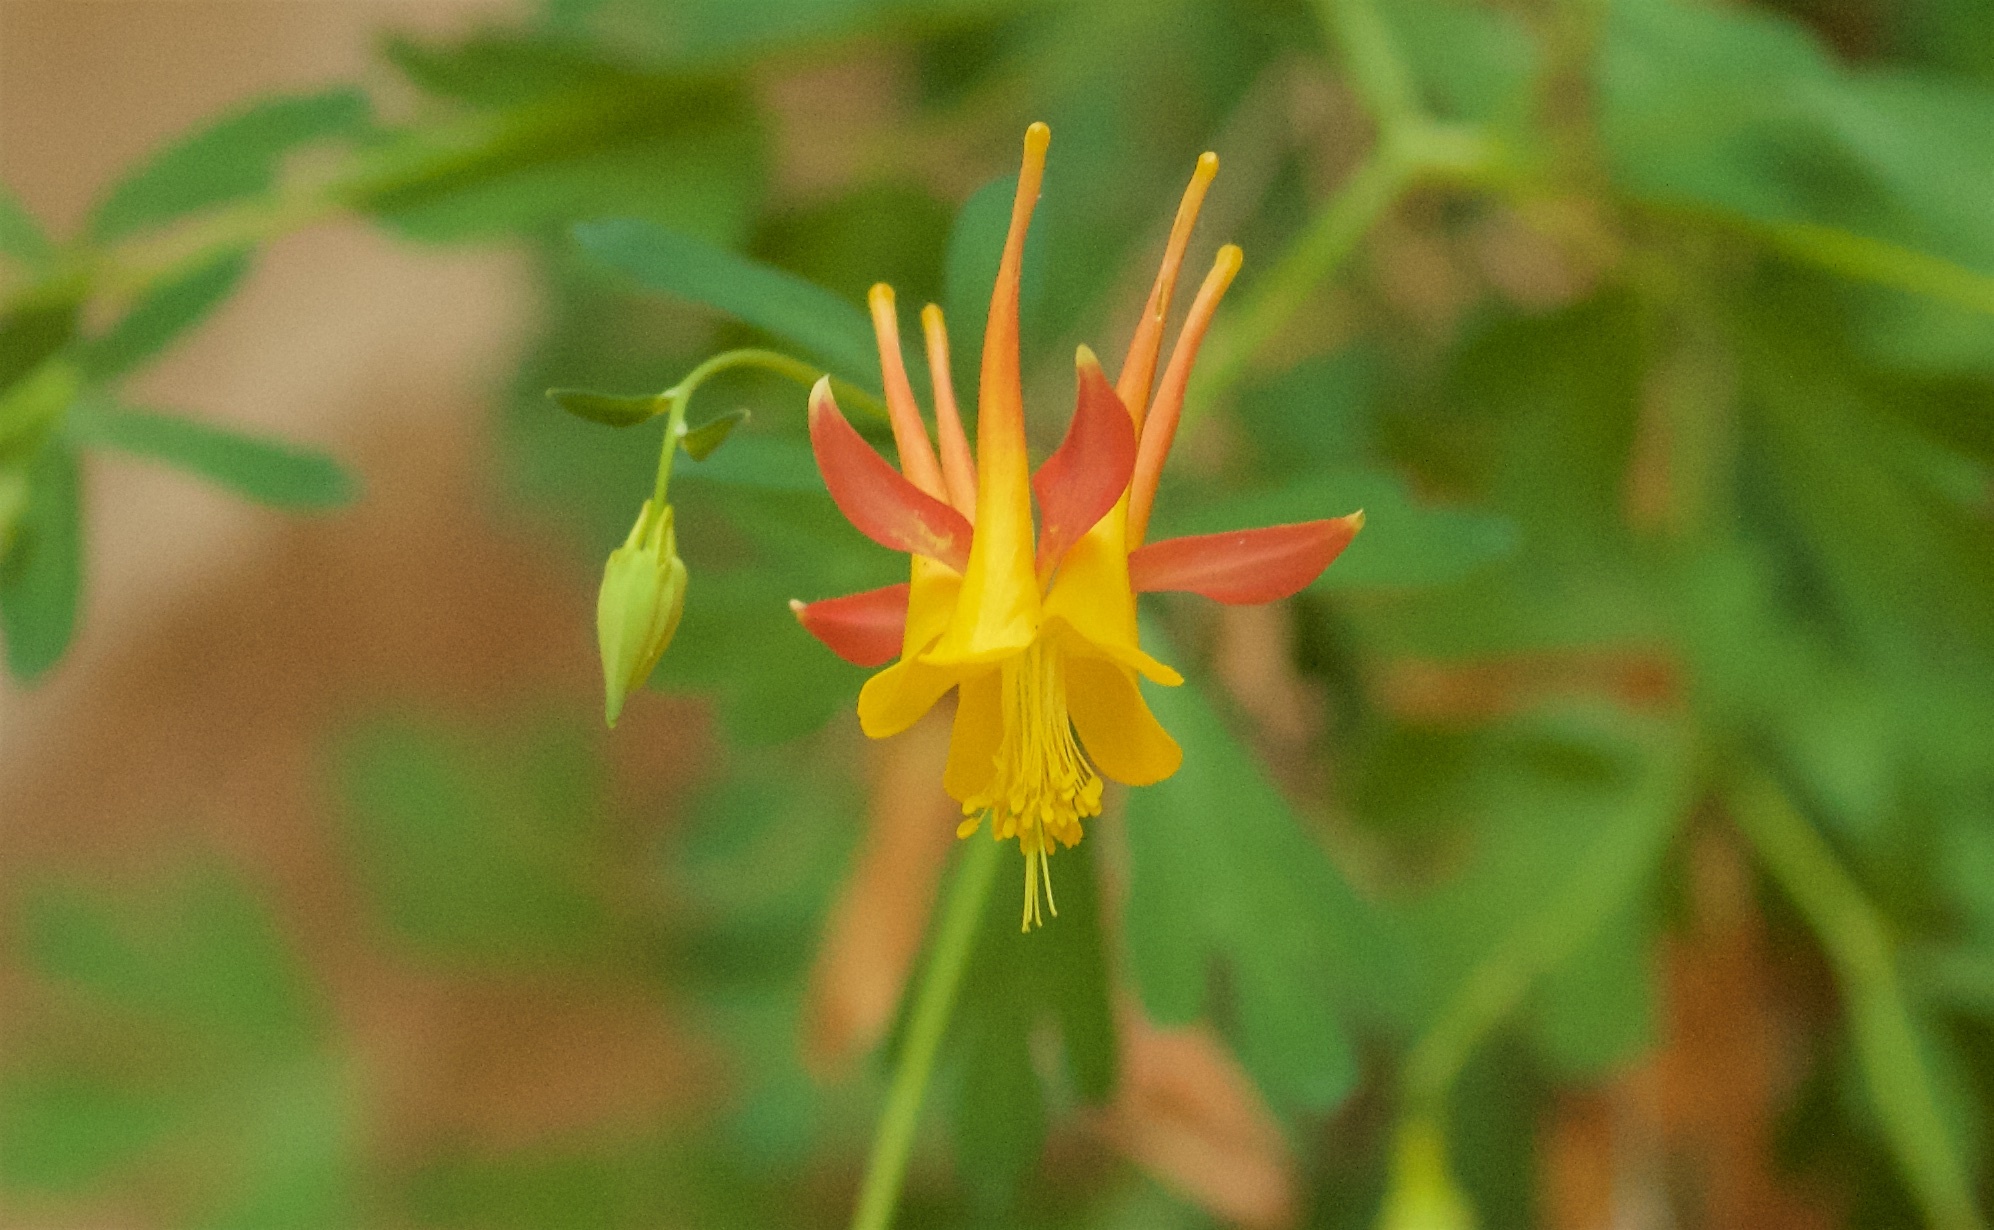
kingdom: Plantae
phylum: Tracheophyta
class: Magnoliopsida
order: Ranunculales
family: Ranunculaceae
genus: Aquilegia
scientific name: Aquilegia formosa
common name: Sitka columbine
